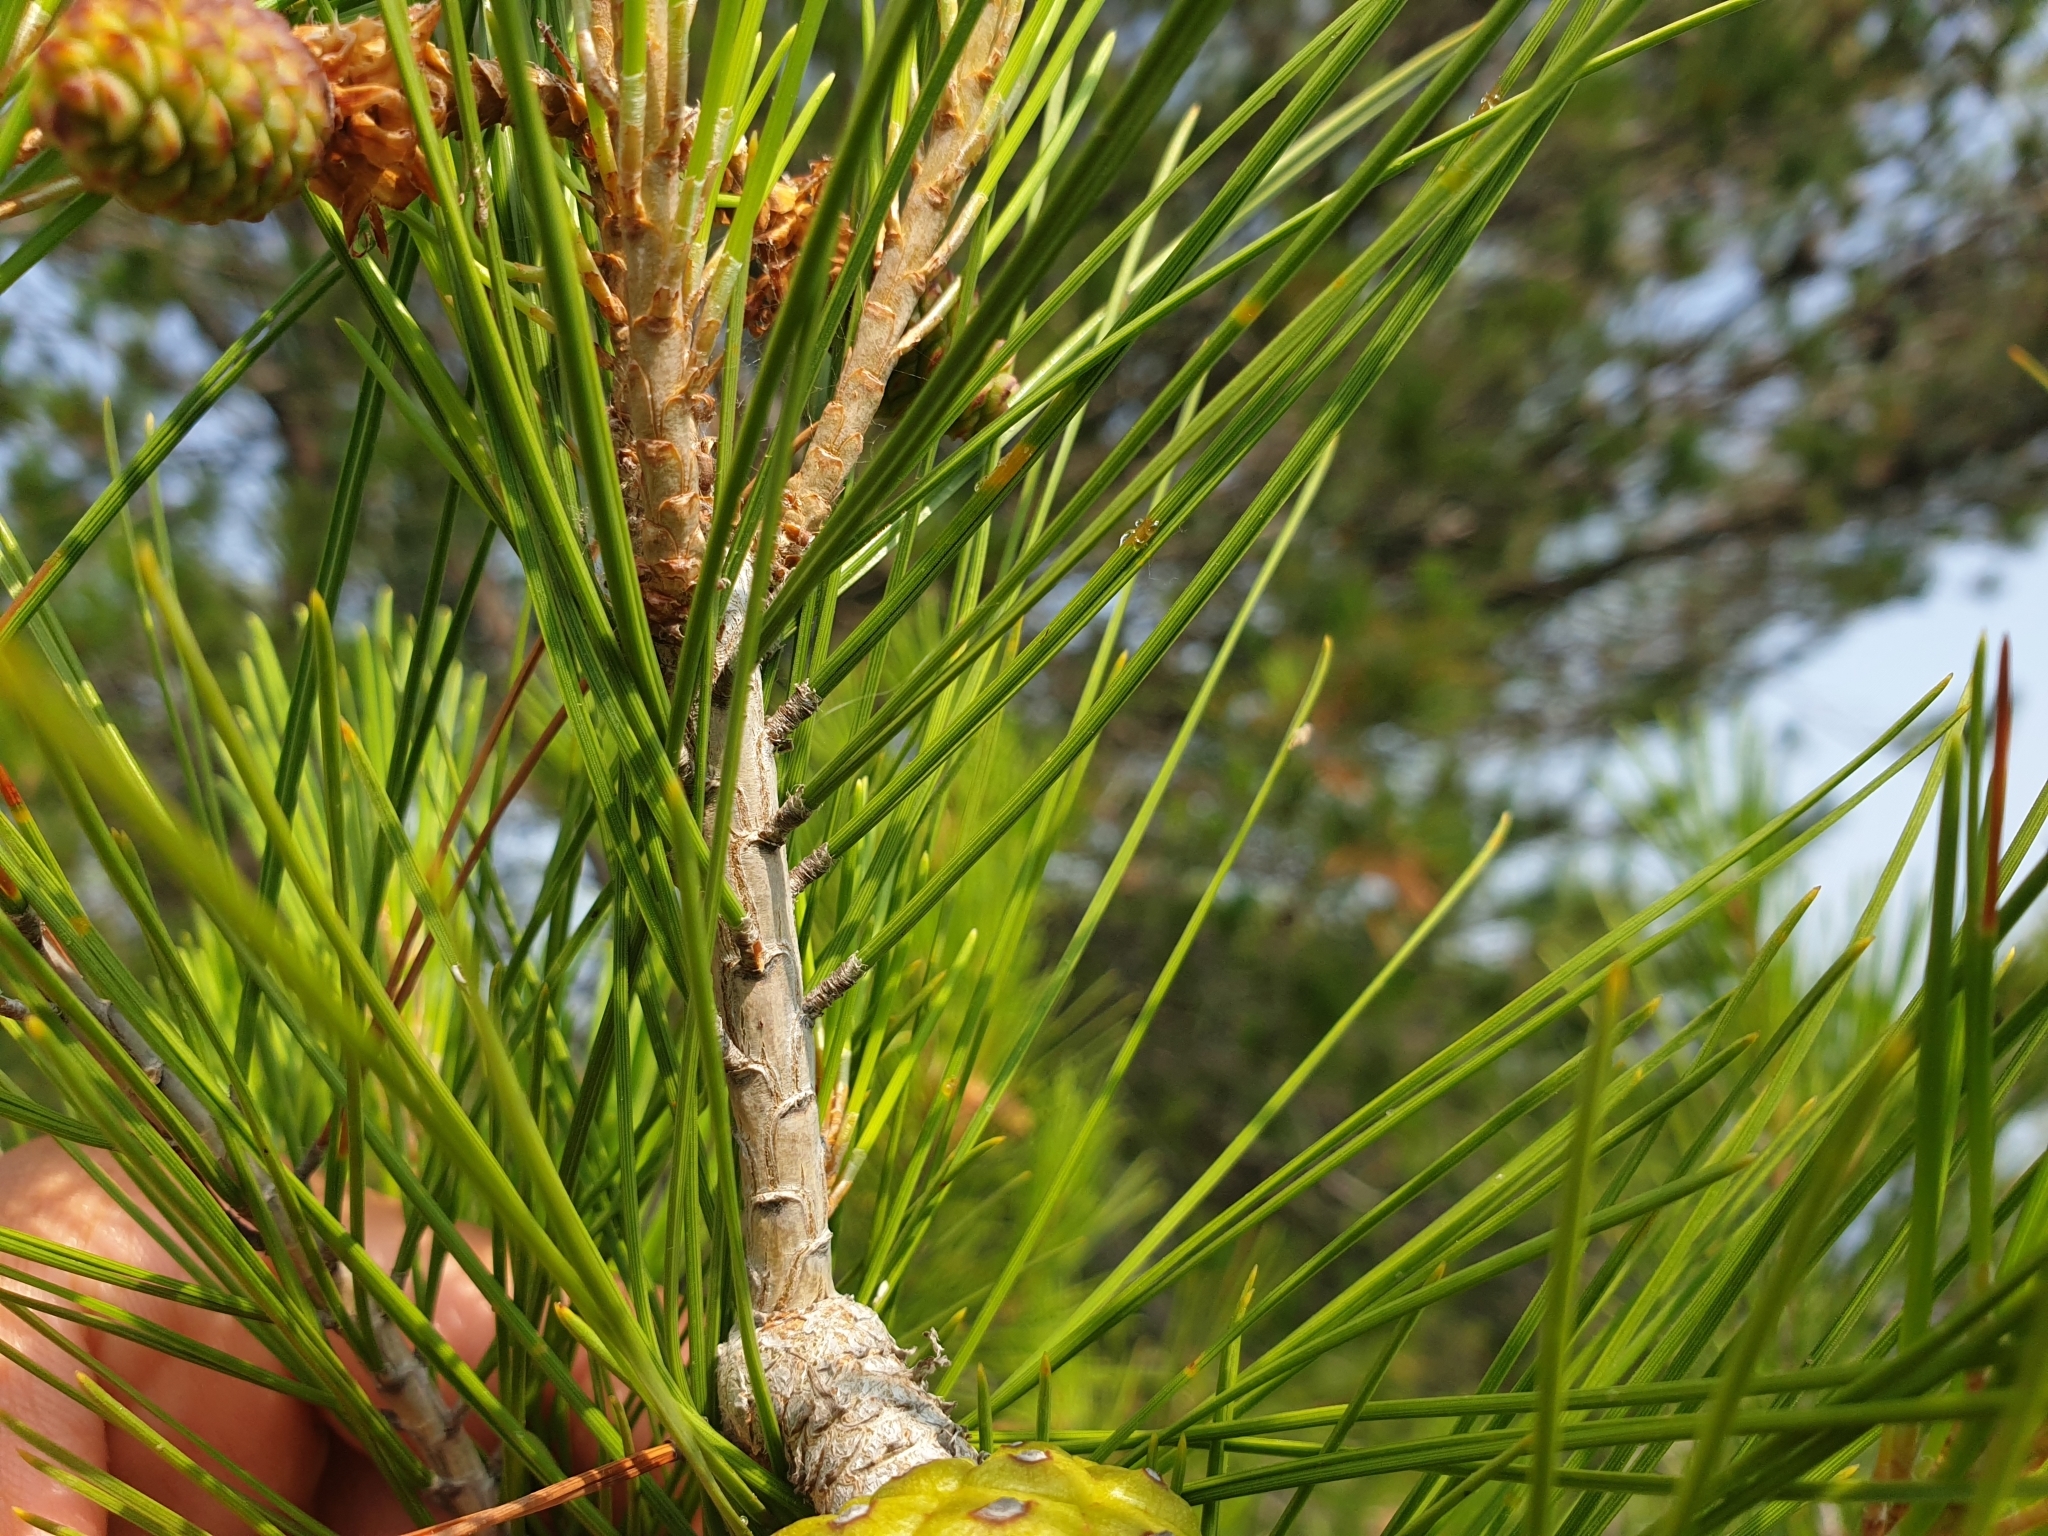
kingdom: Plantae
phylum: Tracheophyta
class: Pinopsida
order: Pinales
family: Pinaceae
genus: Pinus
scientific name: Pinus halepensis
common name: Aleppo pine
